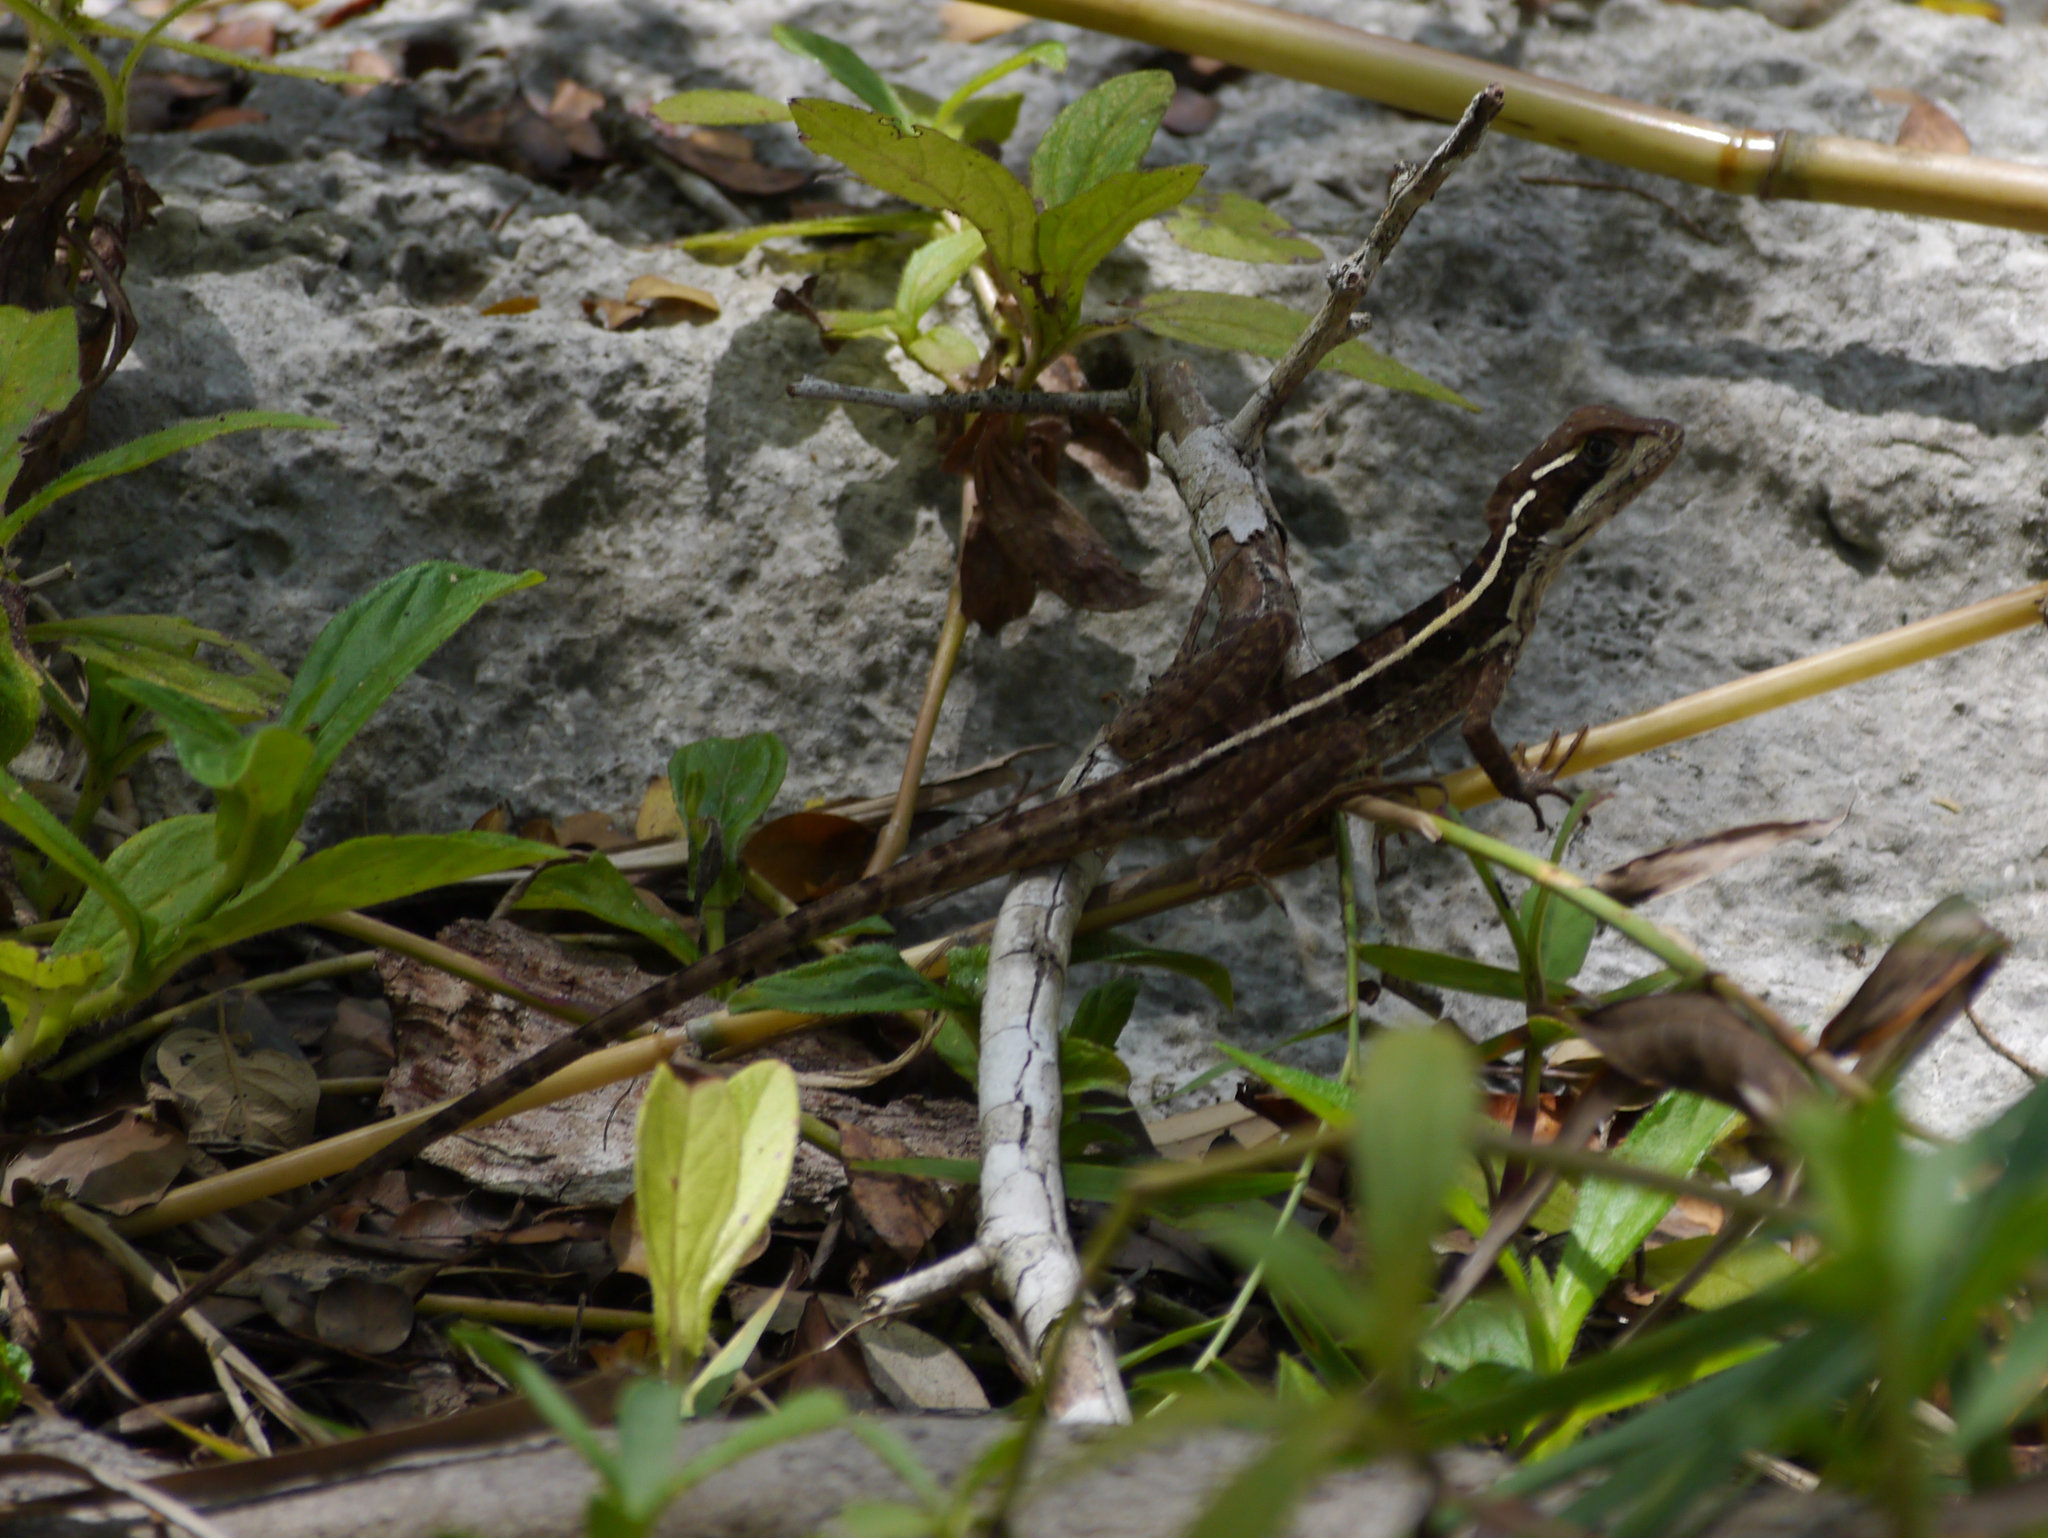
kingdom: Animalia
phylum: Chordata
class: Squamata
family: Corytophanidae
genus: Basiliscus
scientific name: Basiliscus vittatus
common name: Brown basilisk
